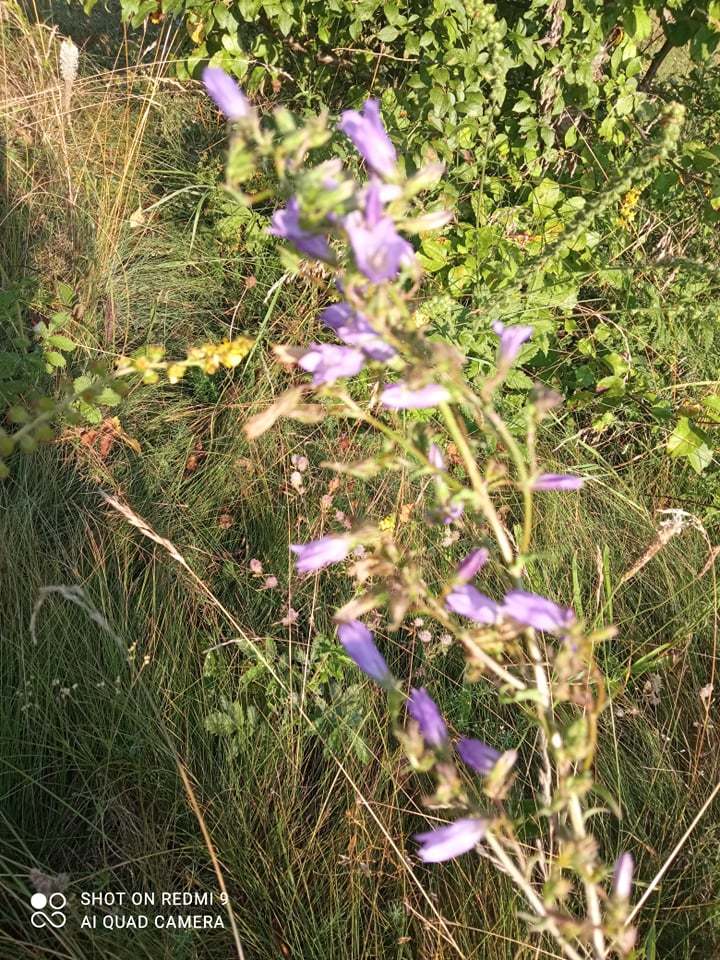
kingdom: Plantae
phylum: Tracheophyta
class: Magnoliopsida
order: Asterales
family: Campanulaceae
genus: Campanula
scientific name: Campanula sibirica
